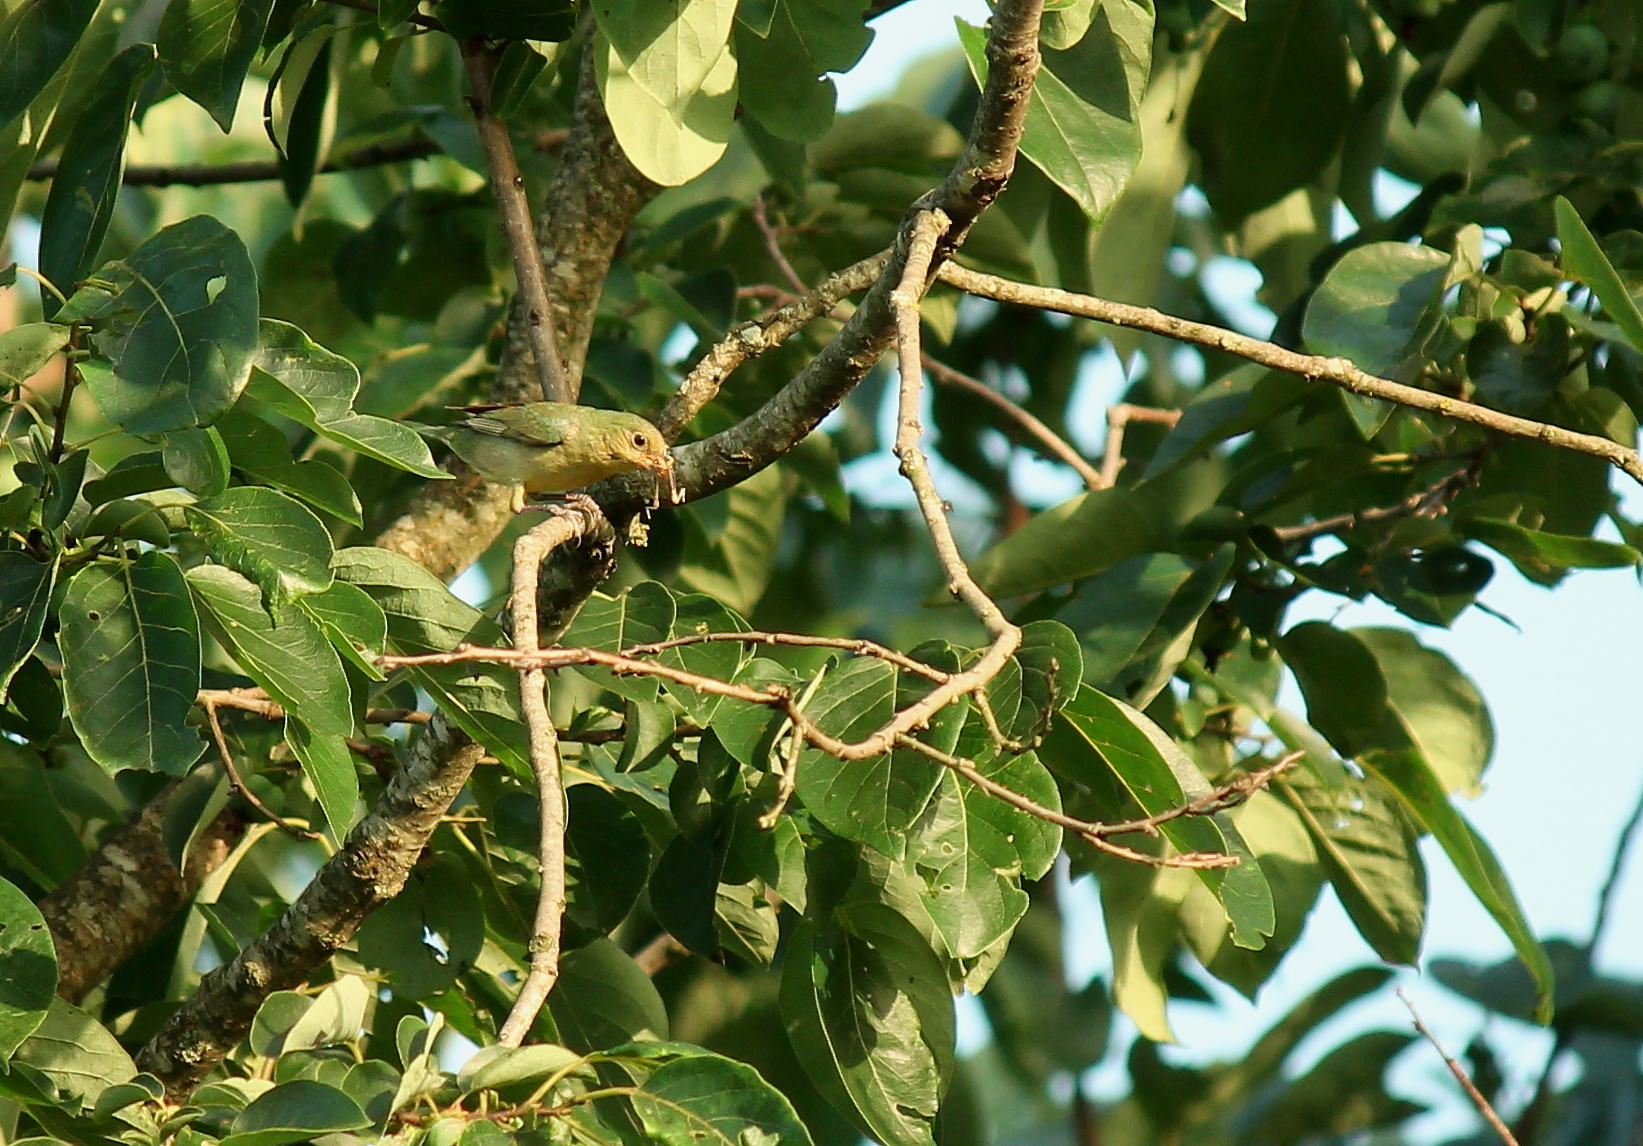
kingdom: Animalia
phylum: Chordata
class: Aves
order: Passeriformes
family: Cardinalidae
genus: Passerina
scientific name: Passerina ciris
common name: Painted bunting
